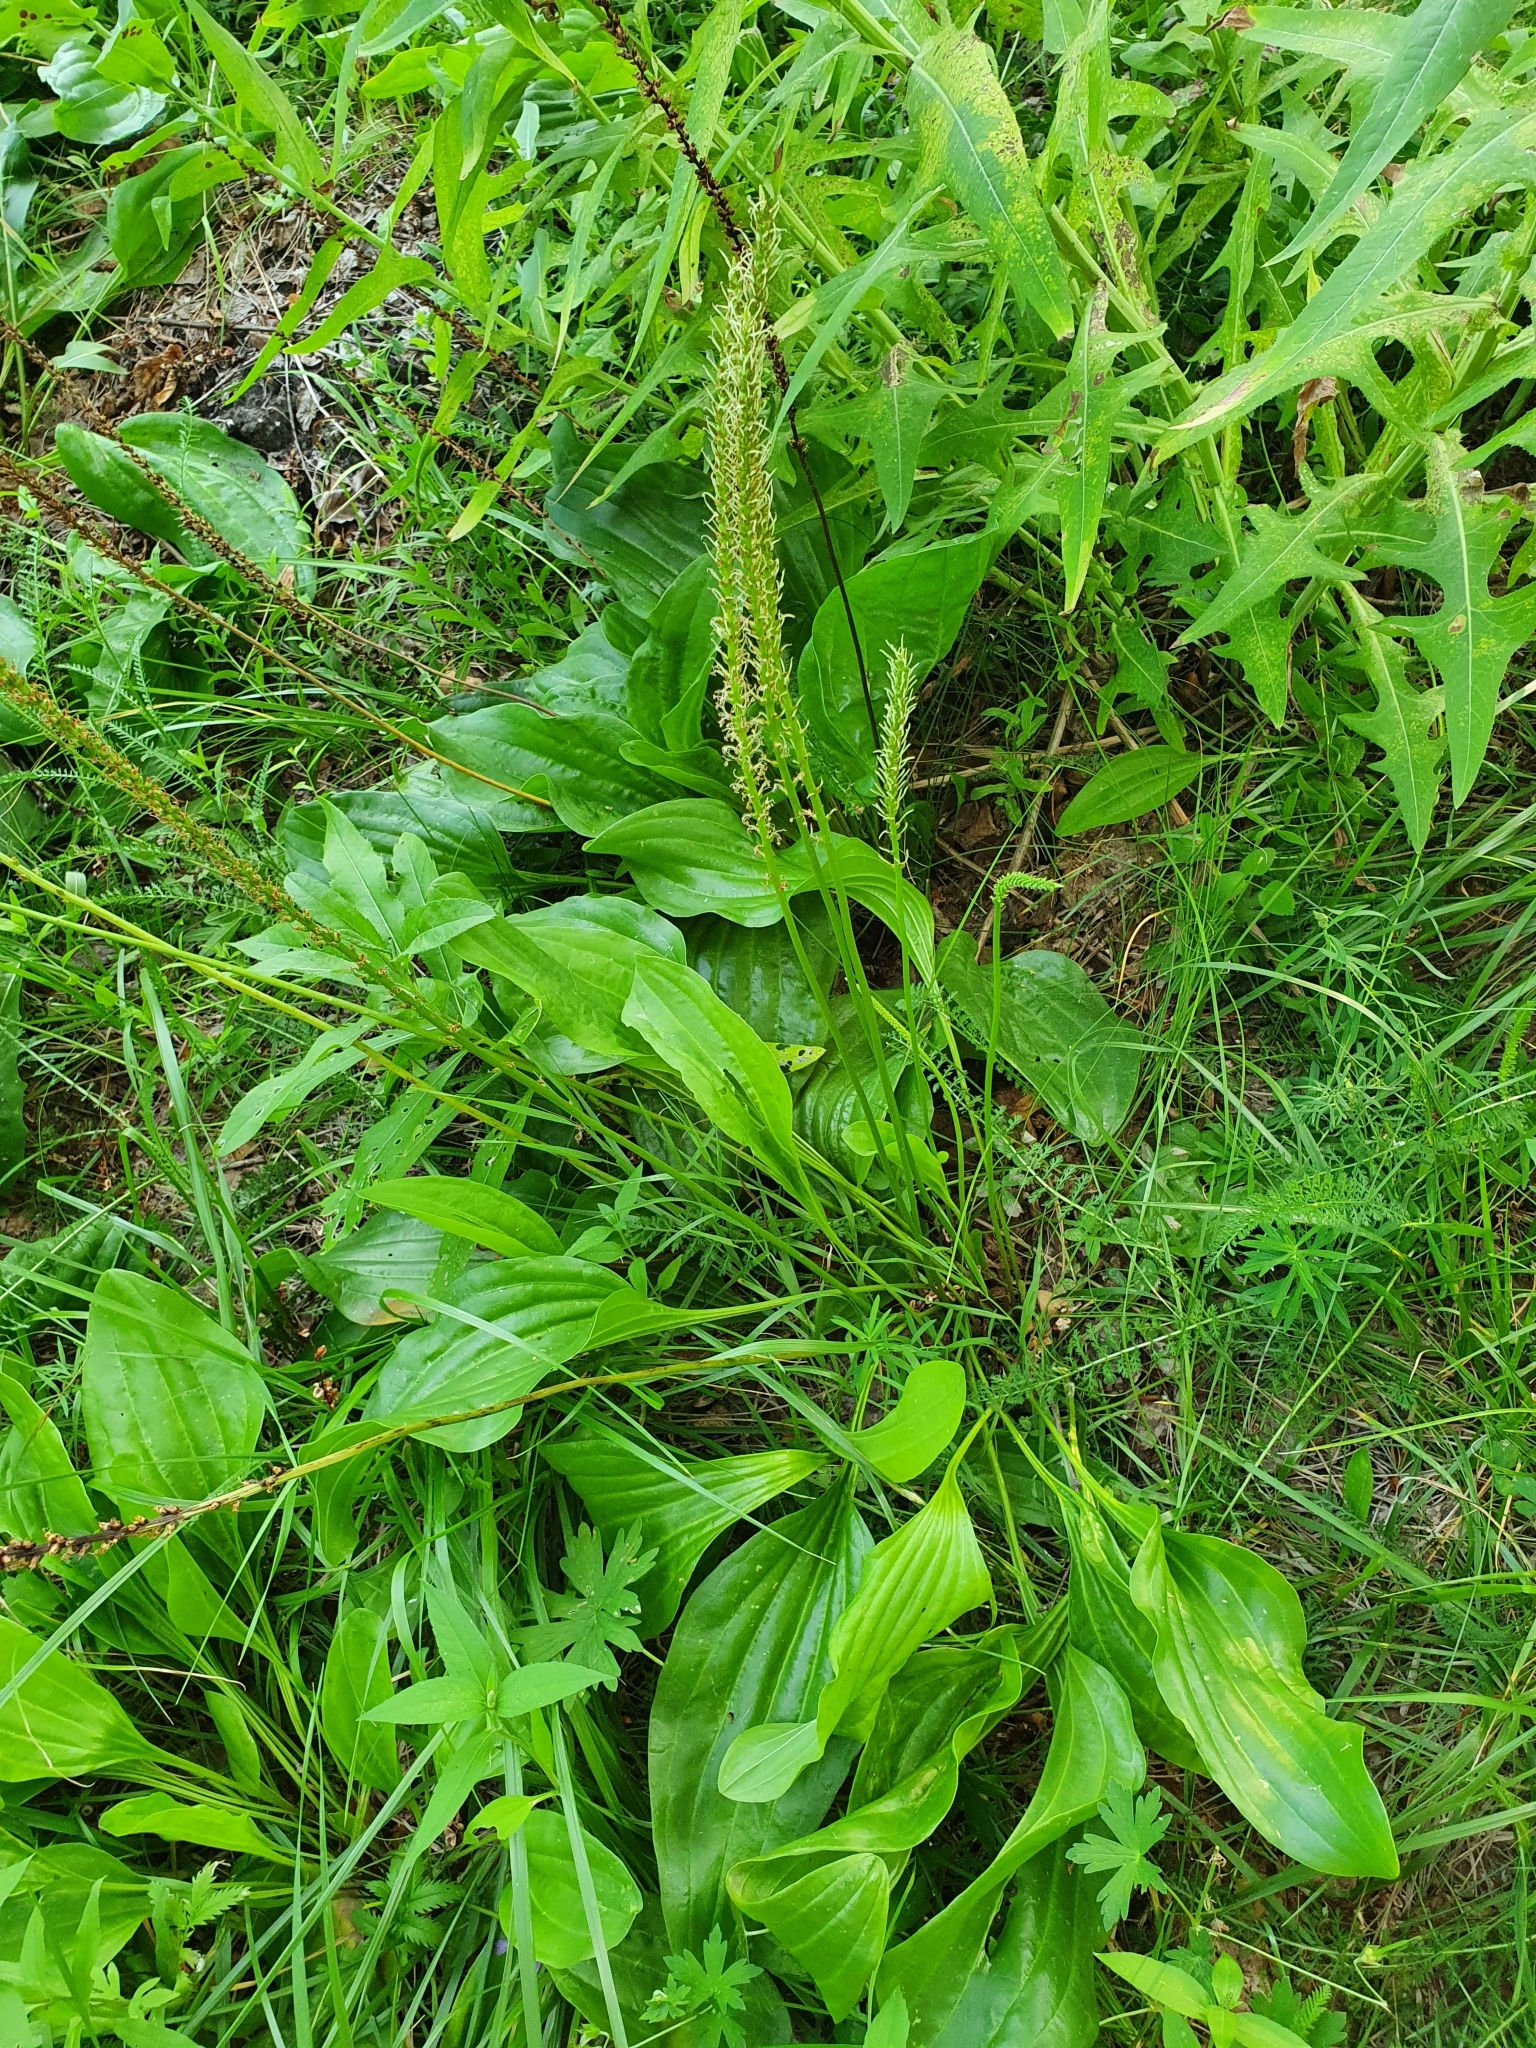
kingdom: Plantae
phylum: Tracheophyta
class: Magnoliopsida
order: Lamiales
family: Plantaginaceae
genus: Plantago
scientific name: Plantago cornuti
